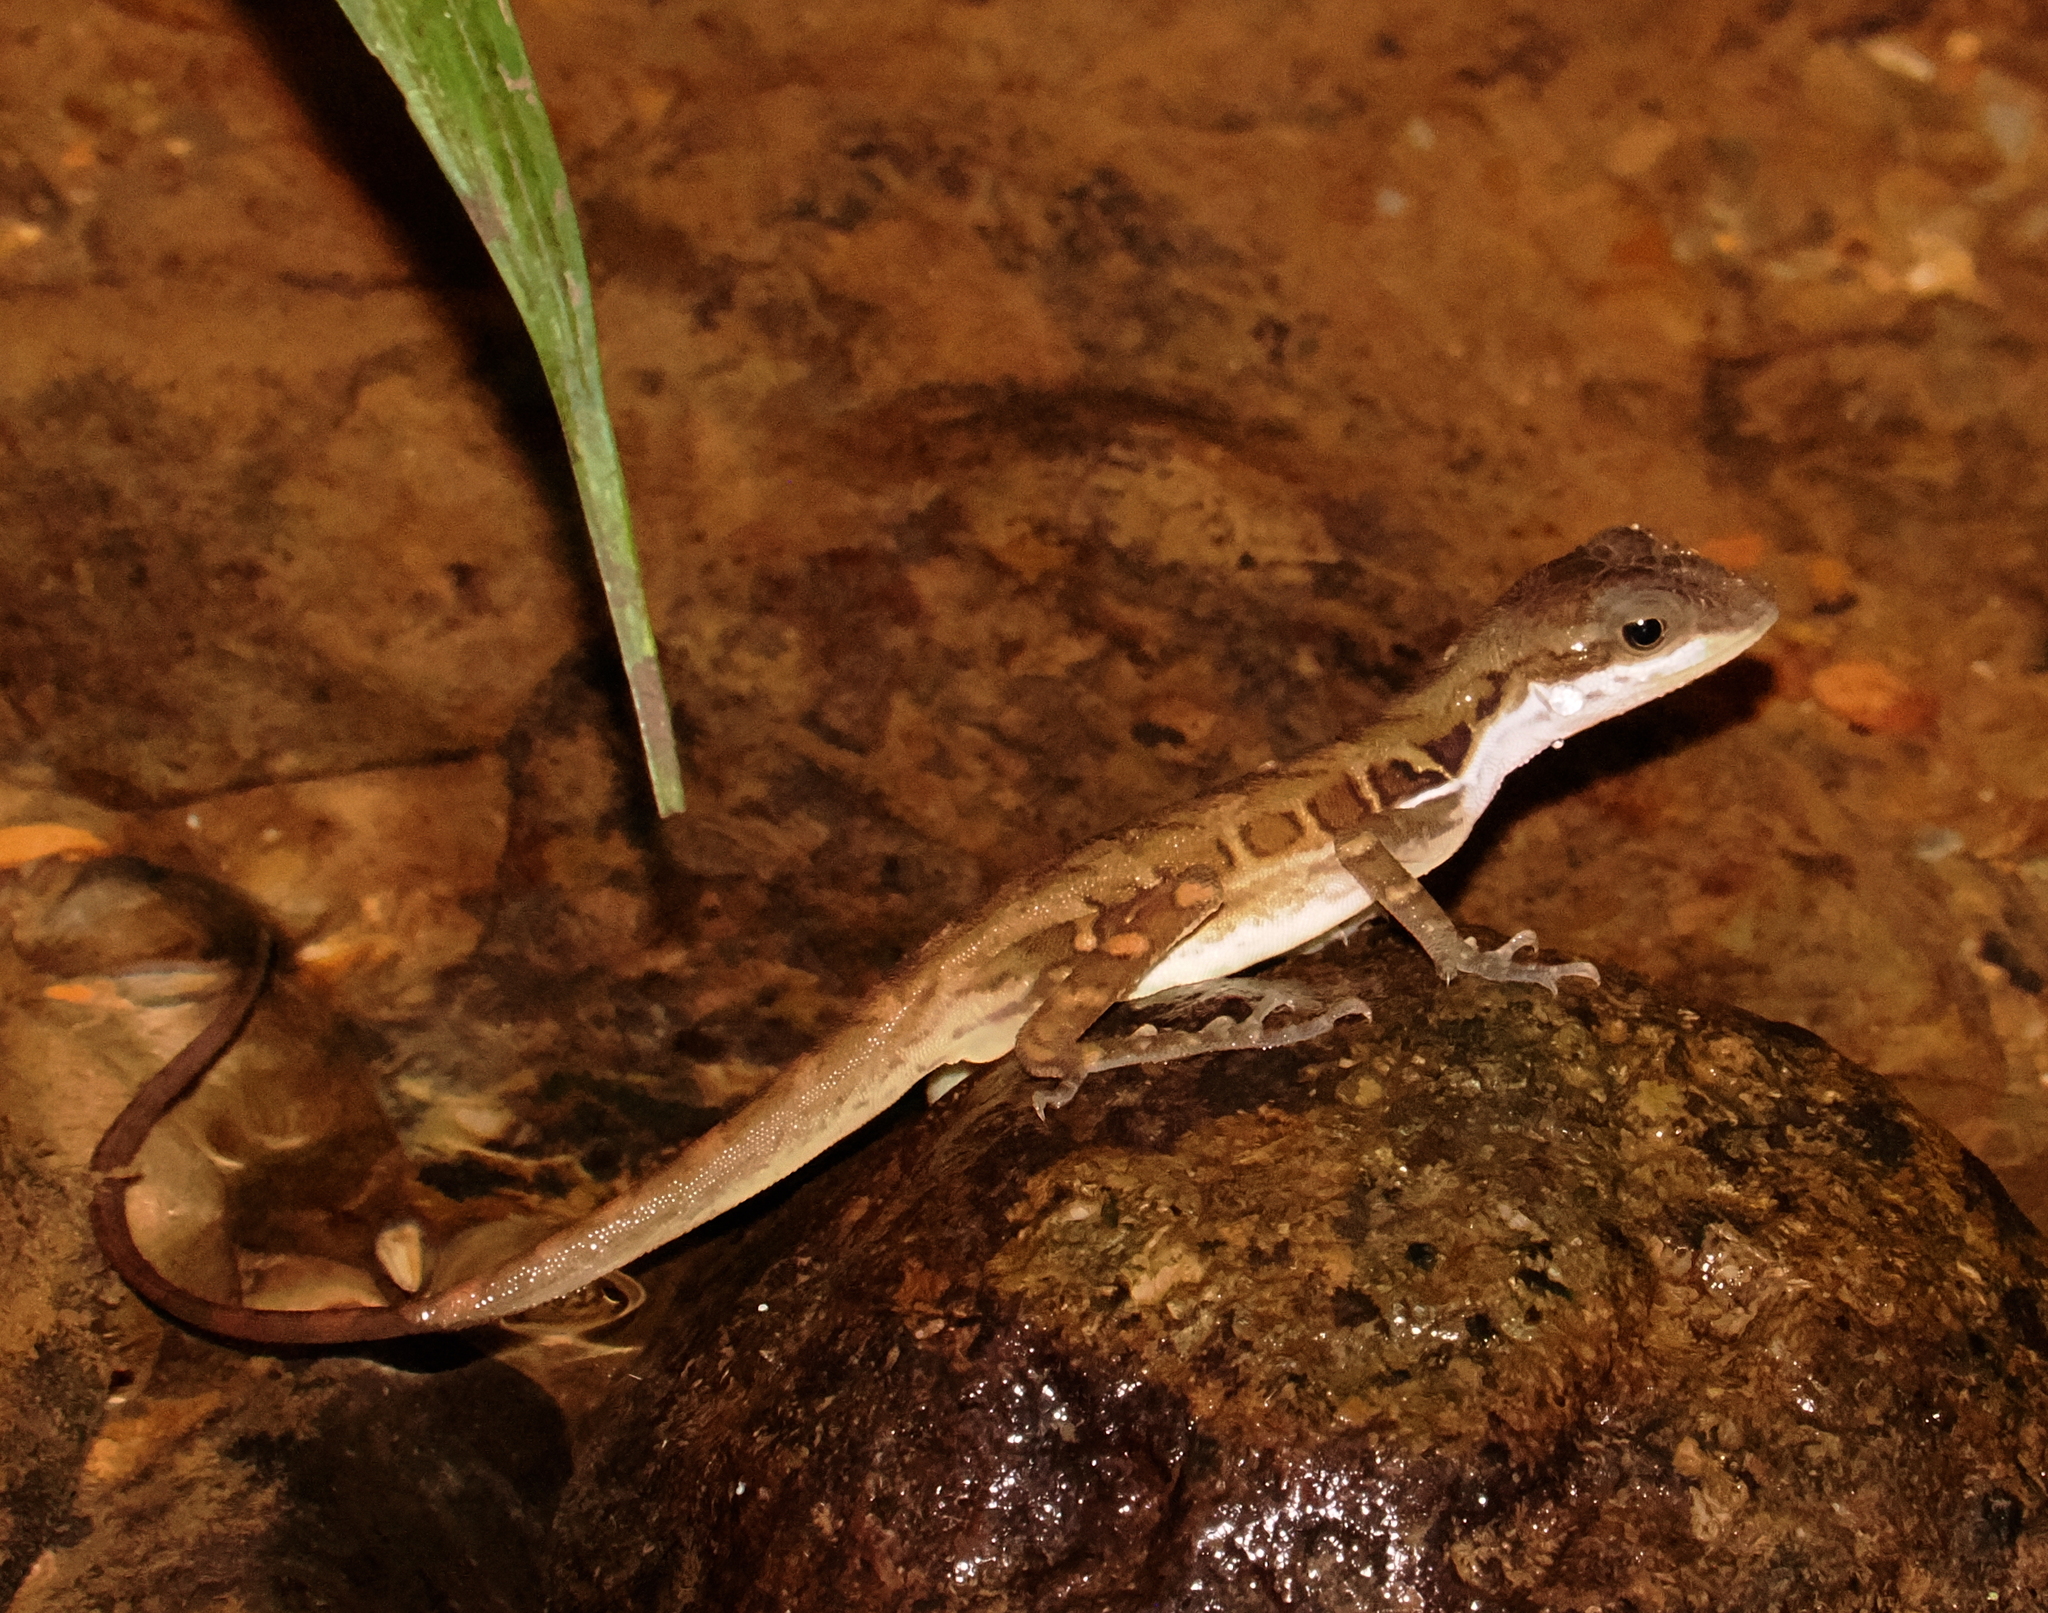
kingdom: Animalia
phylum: Chordata
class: Squamata
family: Dactyloidae
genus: Anolis
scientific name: Anolis macrolepis
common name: Big-scaled anole
